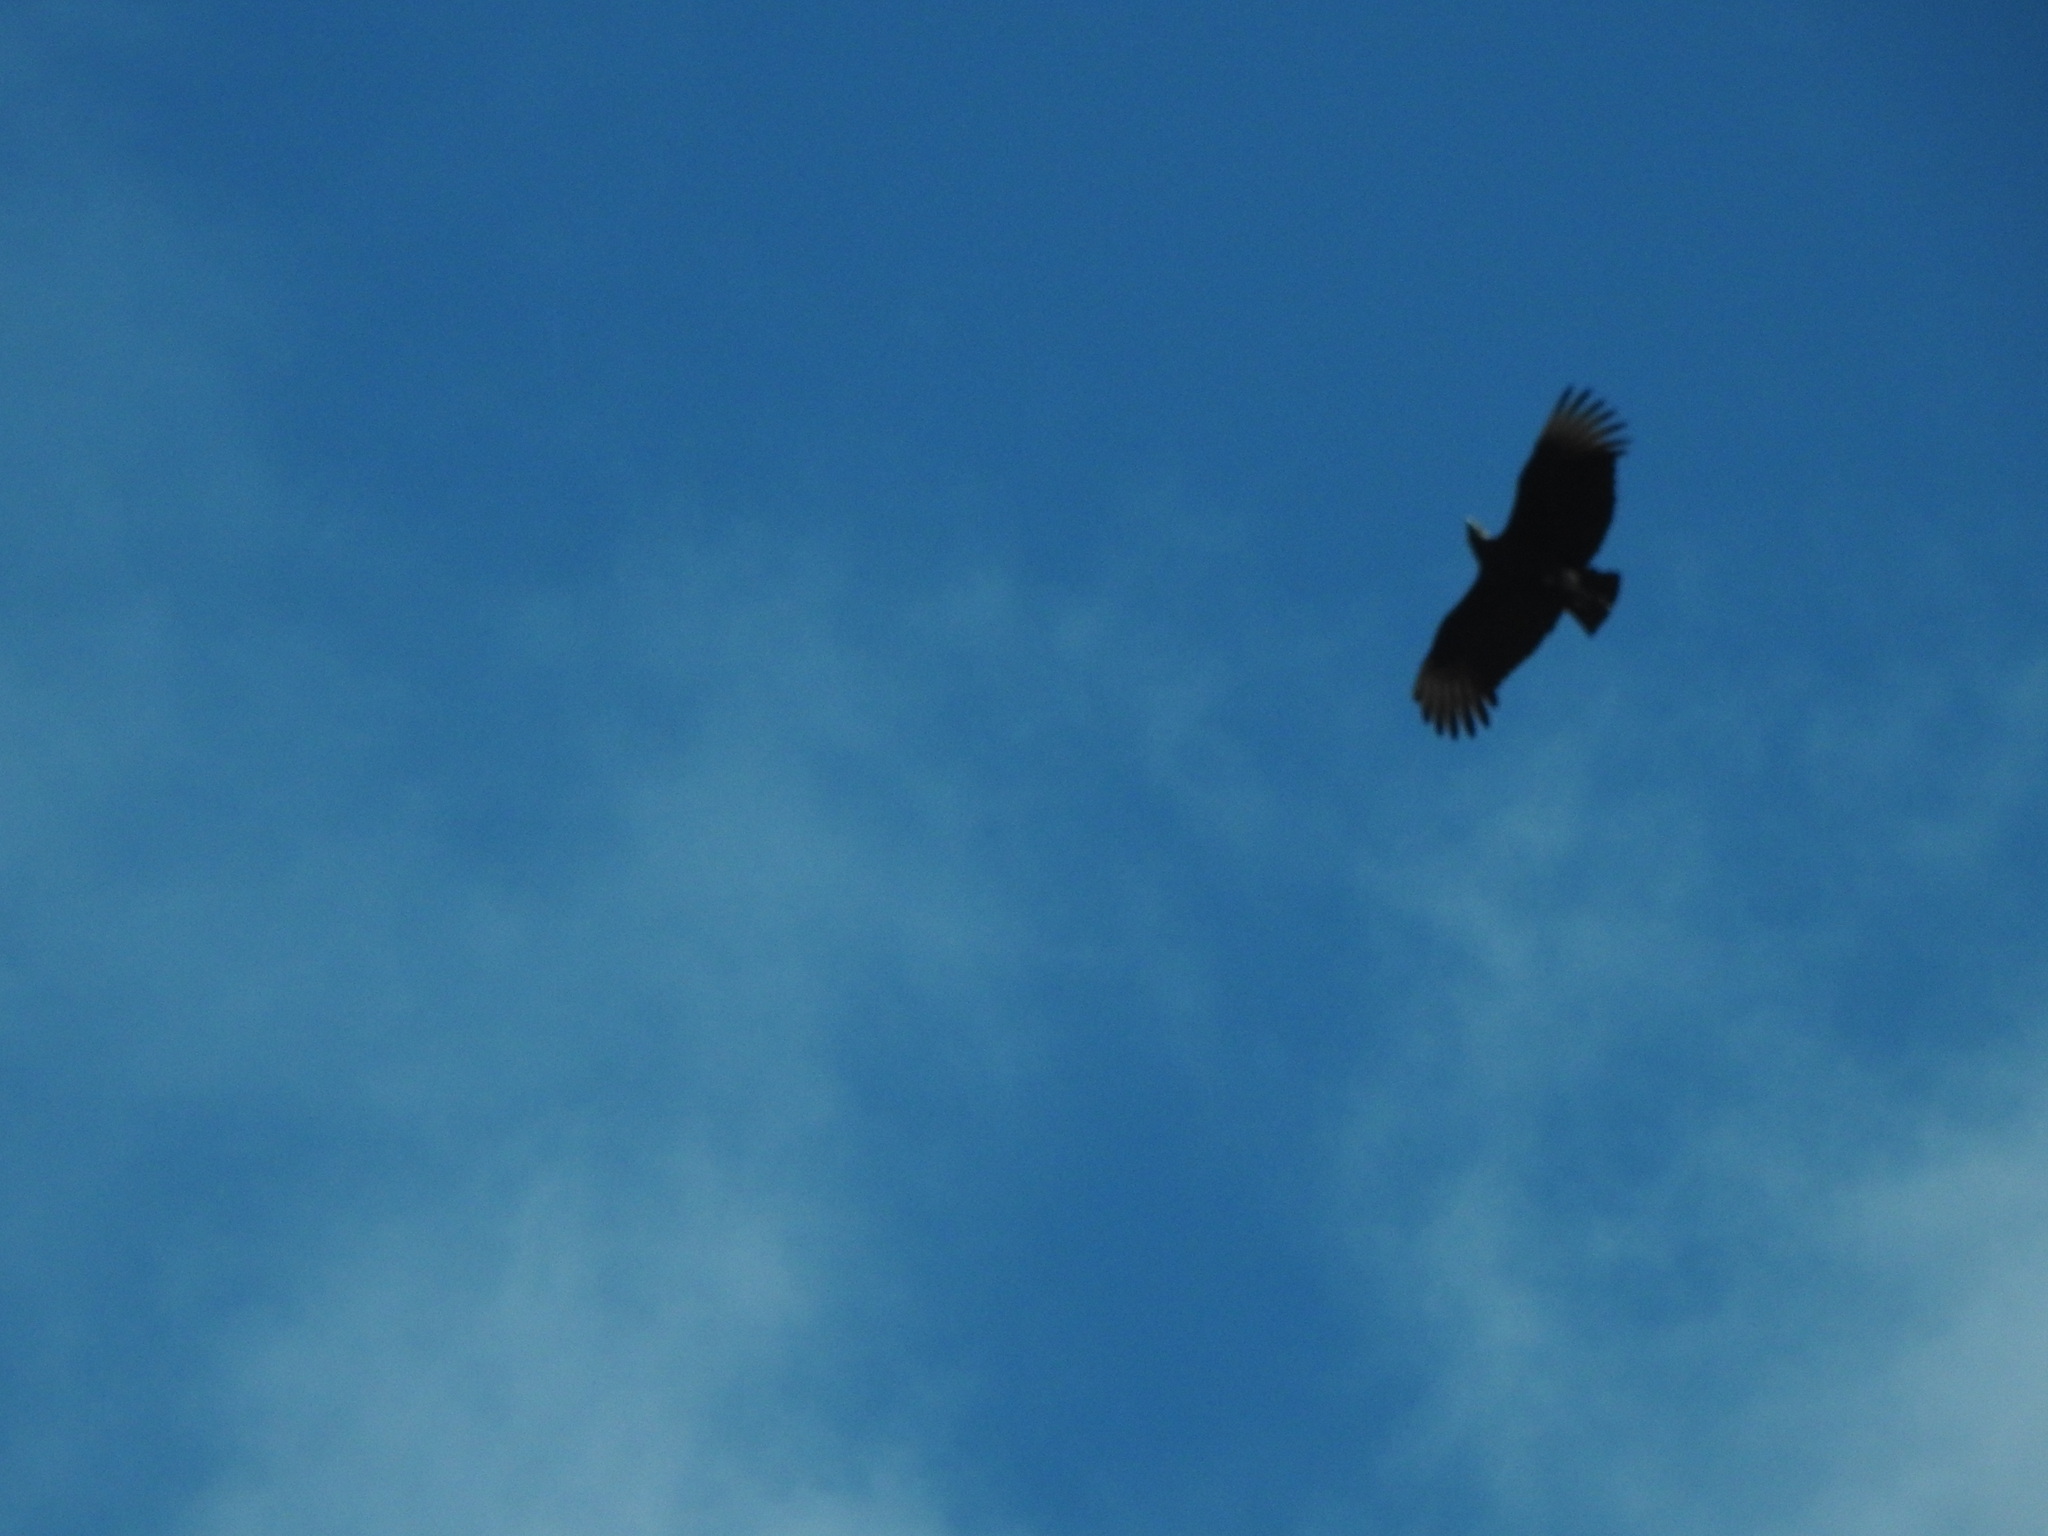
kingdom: Animalia
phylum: Chordata
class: Aves
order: Accipitriformes
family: Cathartidae
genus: Coragyps
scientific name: Coragyps atratus
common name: Black vulture
